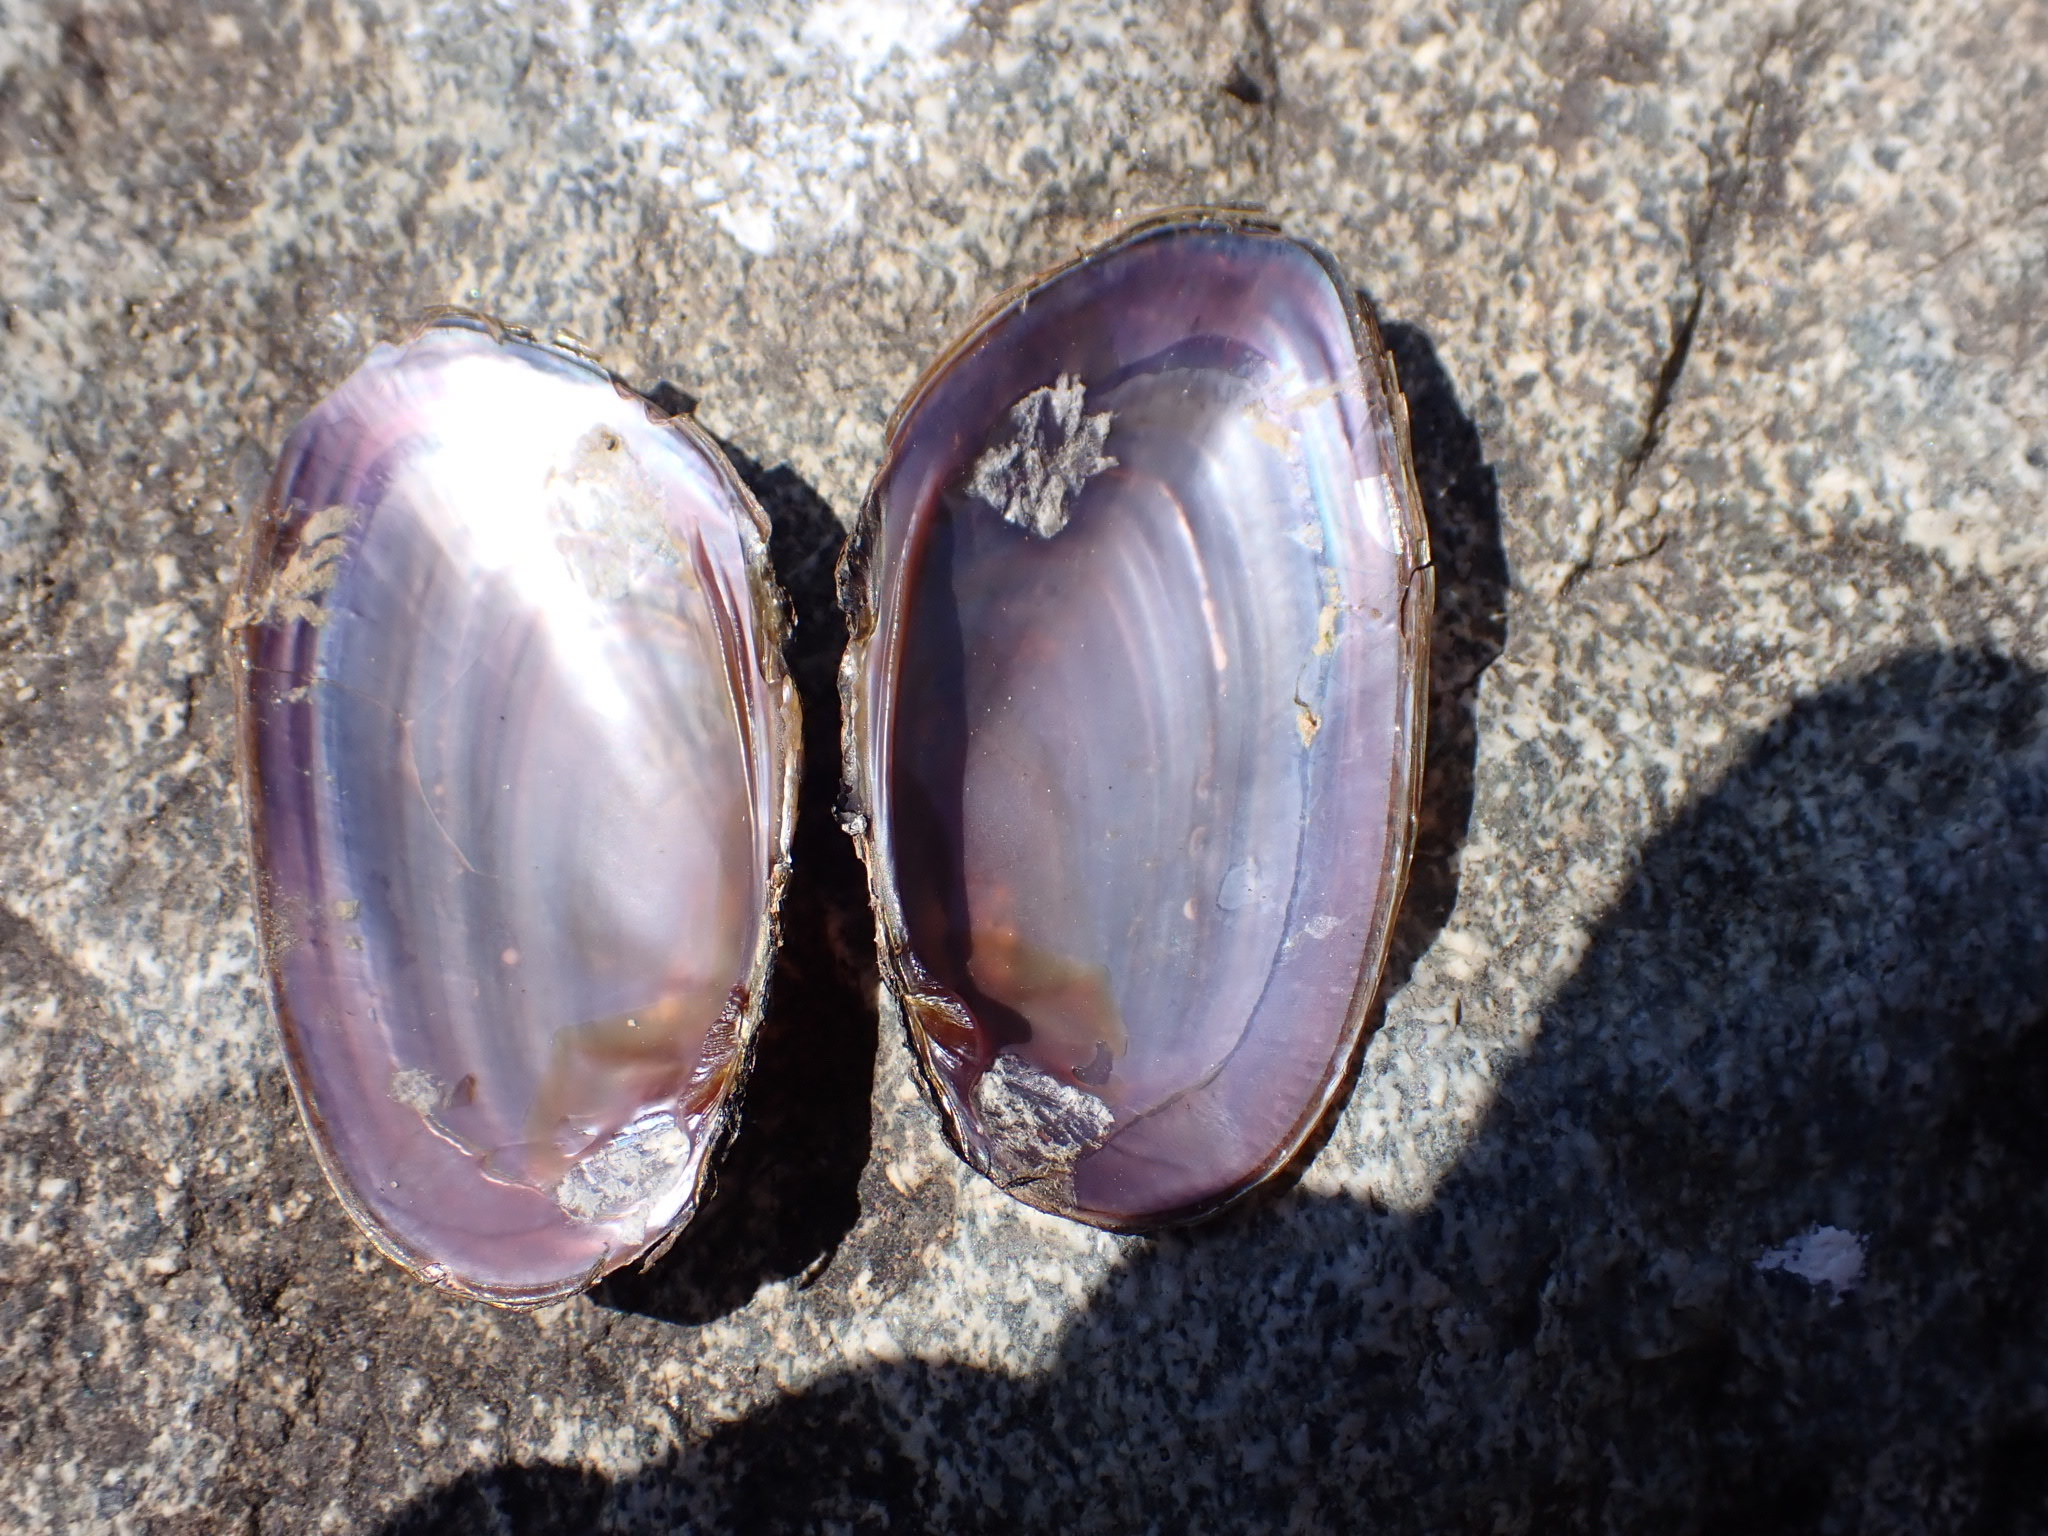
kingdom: Animalia
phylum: Mollusca
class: Bivalvia
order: Unionida
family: Unionidae
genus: Elliptio
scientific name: Elliptio complanata
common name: Eastern elliptio
